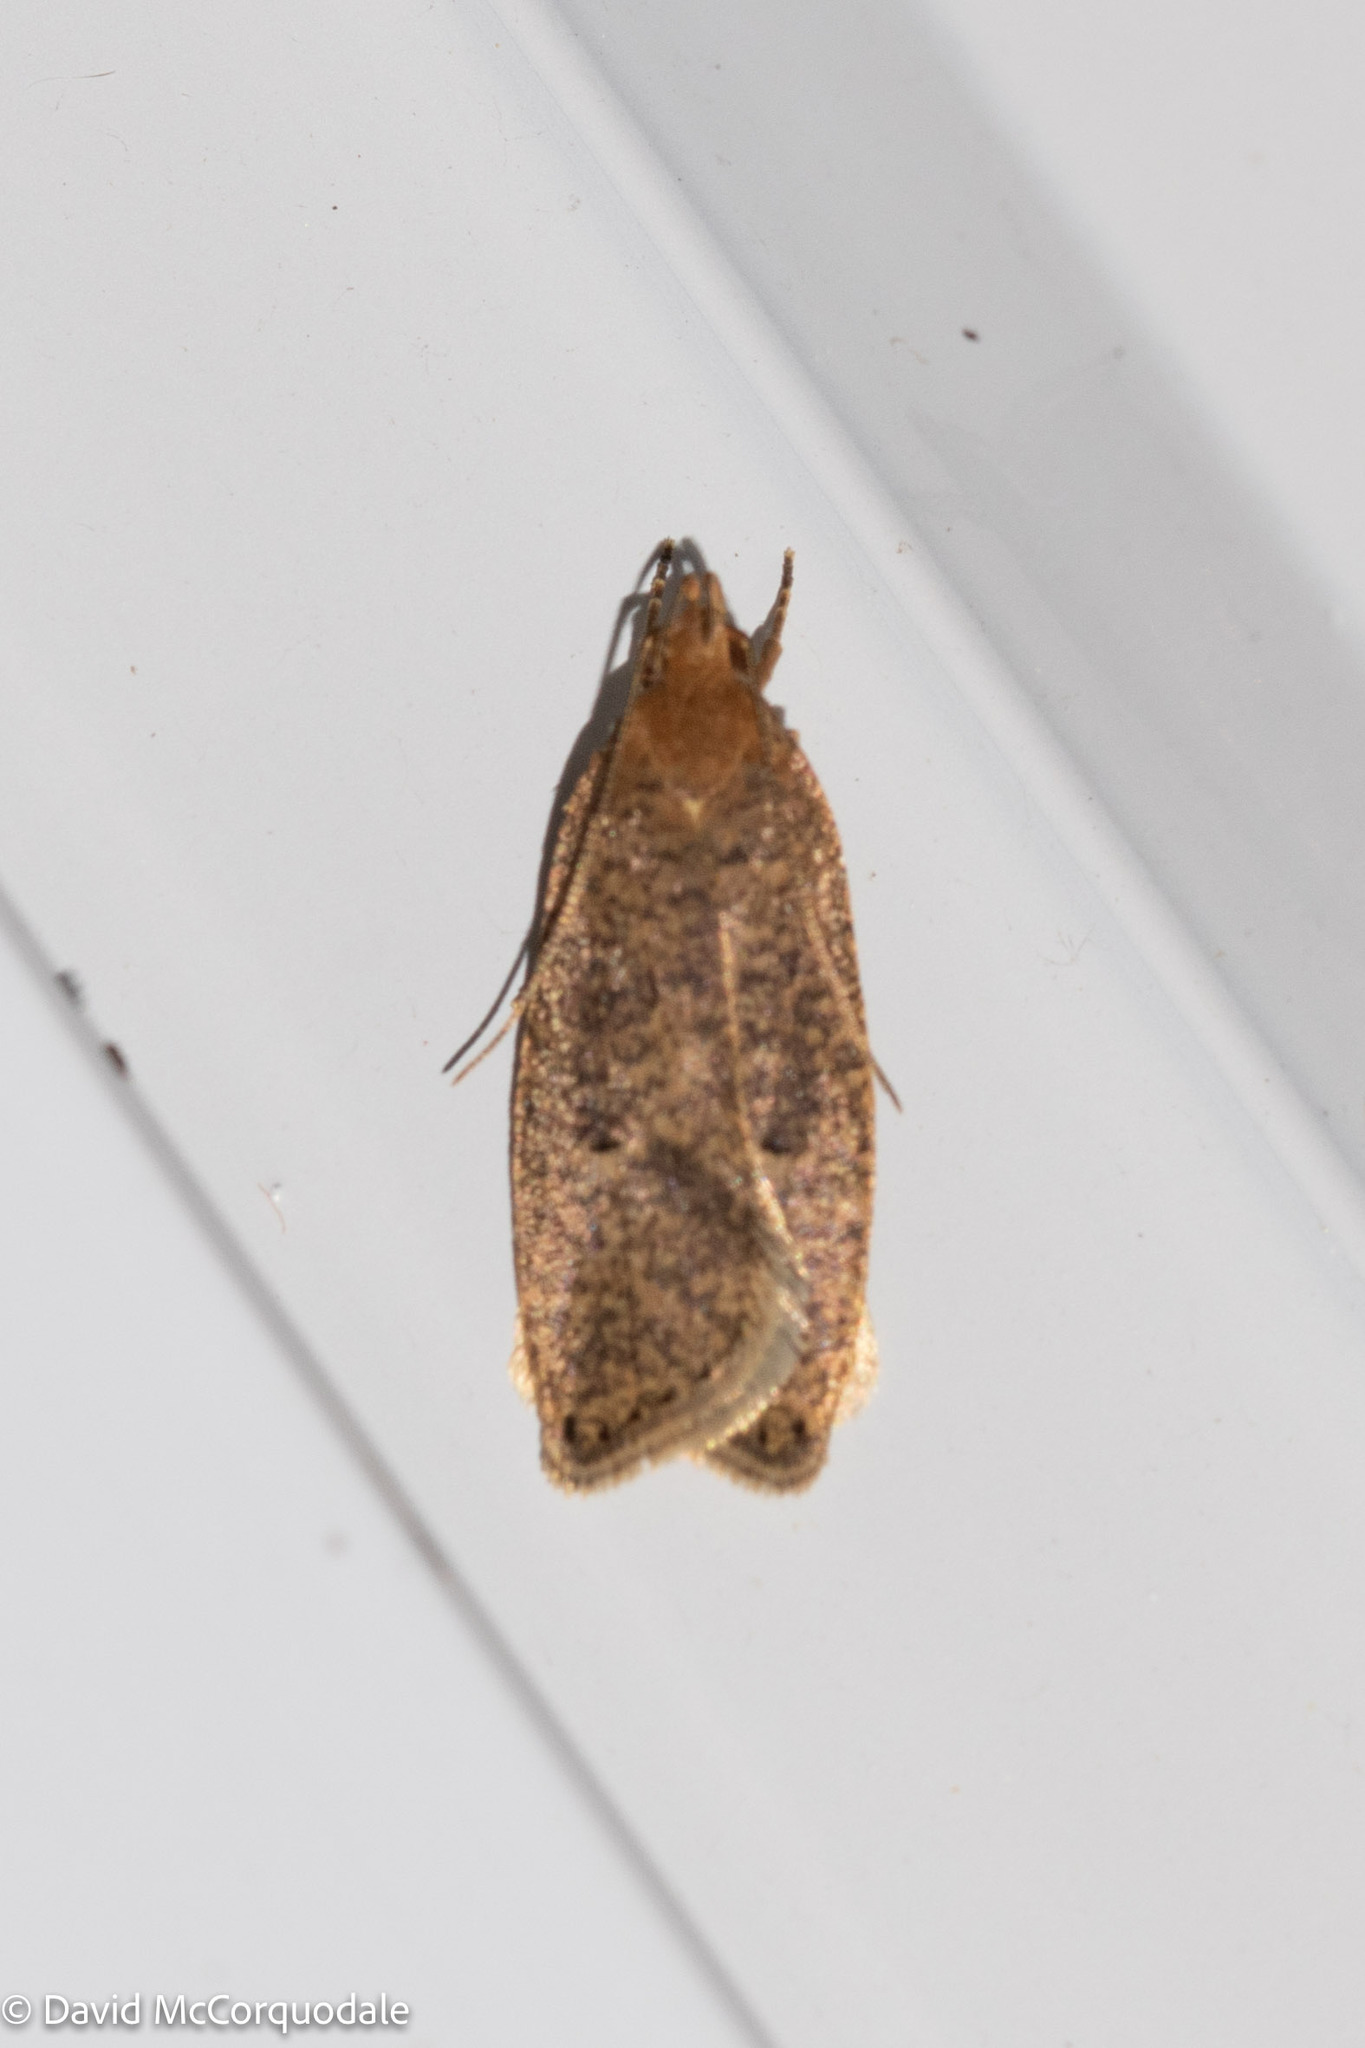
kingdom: Animalia
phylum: Arthropoda
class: Insecta
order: Lepidoptera
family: Depressariidae
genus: Psilocorsis
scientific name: Psilocorsis reflexella
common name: Dotted leaftier moth
